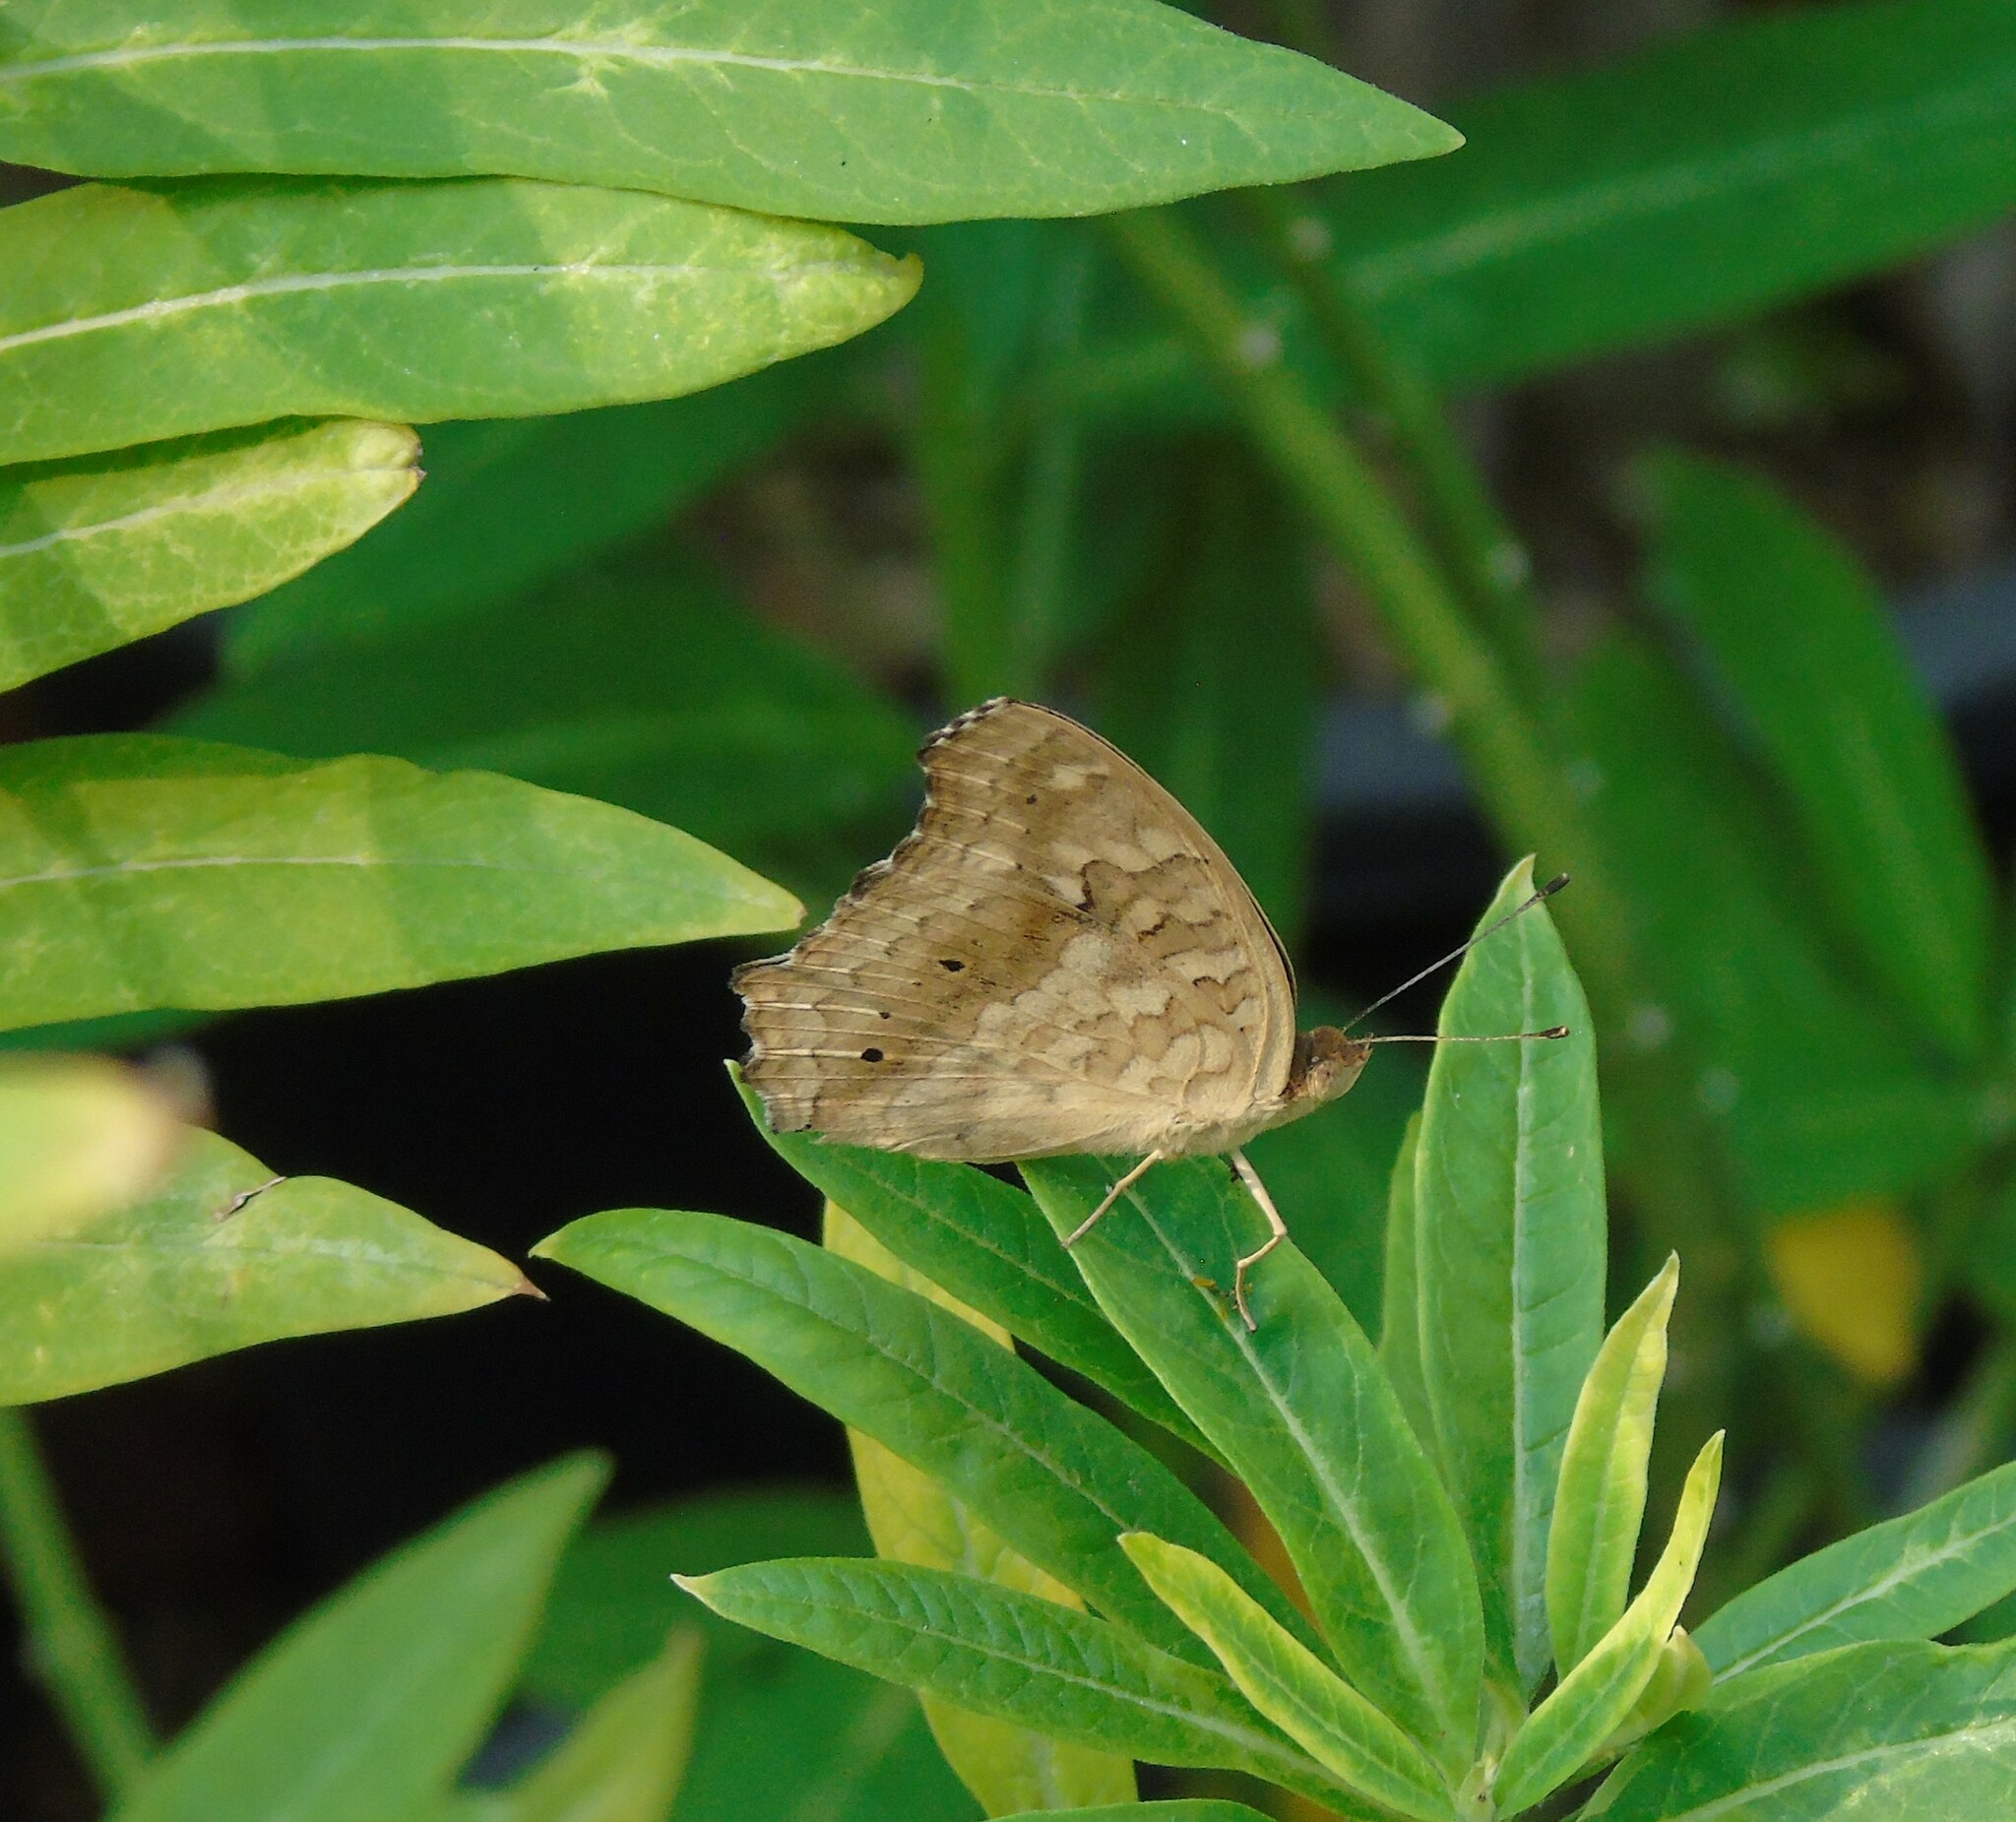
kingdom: Animalia
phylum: Arthropoda
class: Insecta
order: Lepidoptera
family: Nymphalidae
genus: Junonia
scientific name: Junonia lemonias
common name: Lemon pansy
